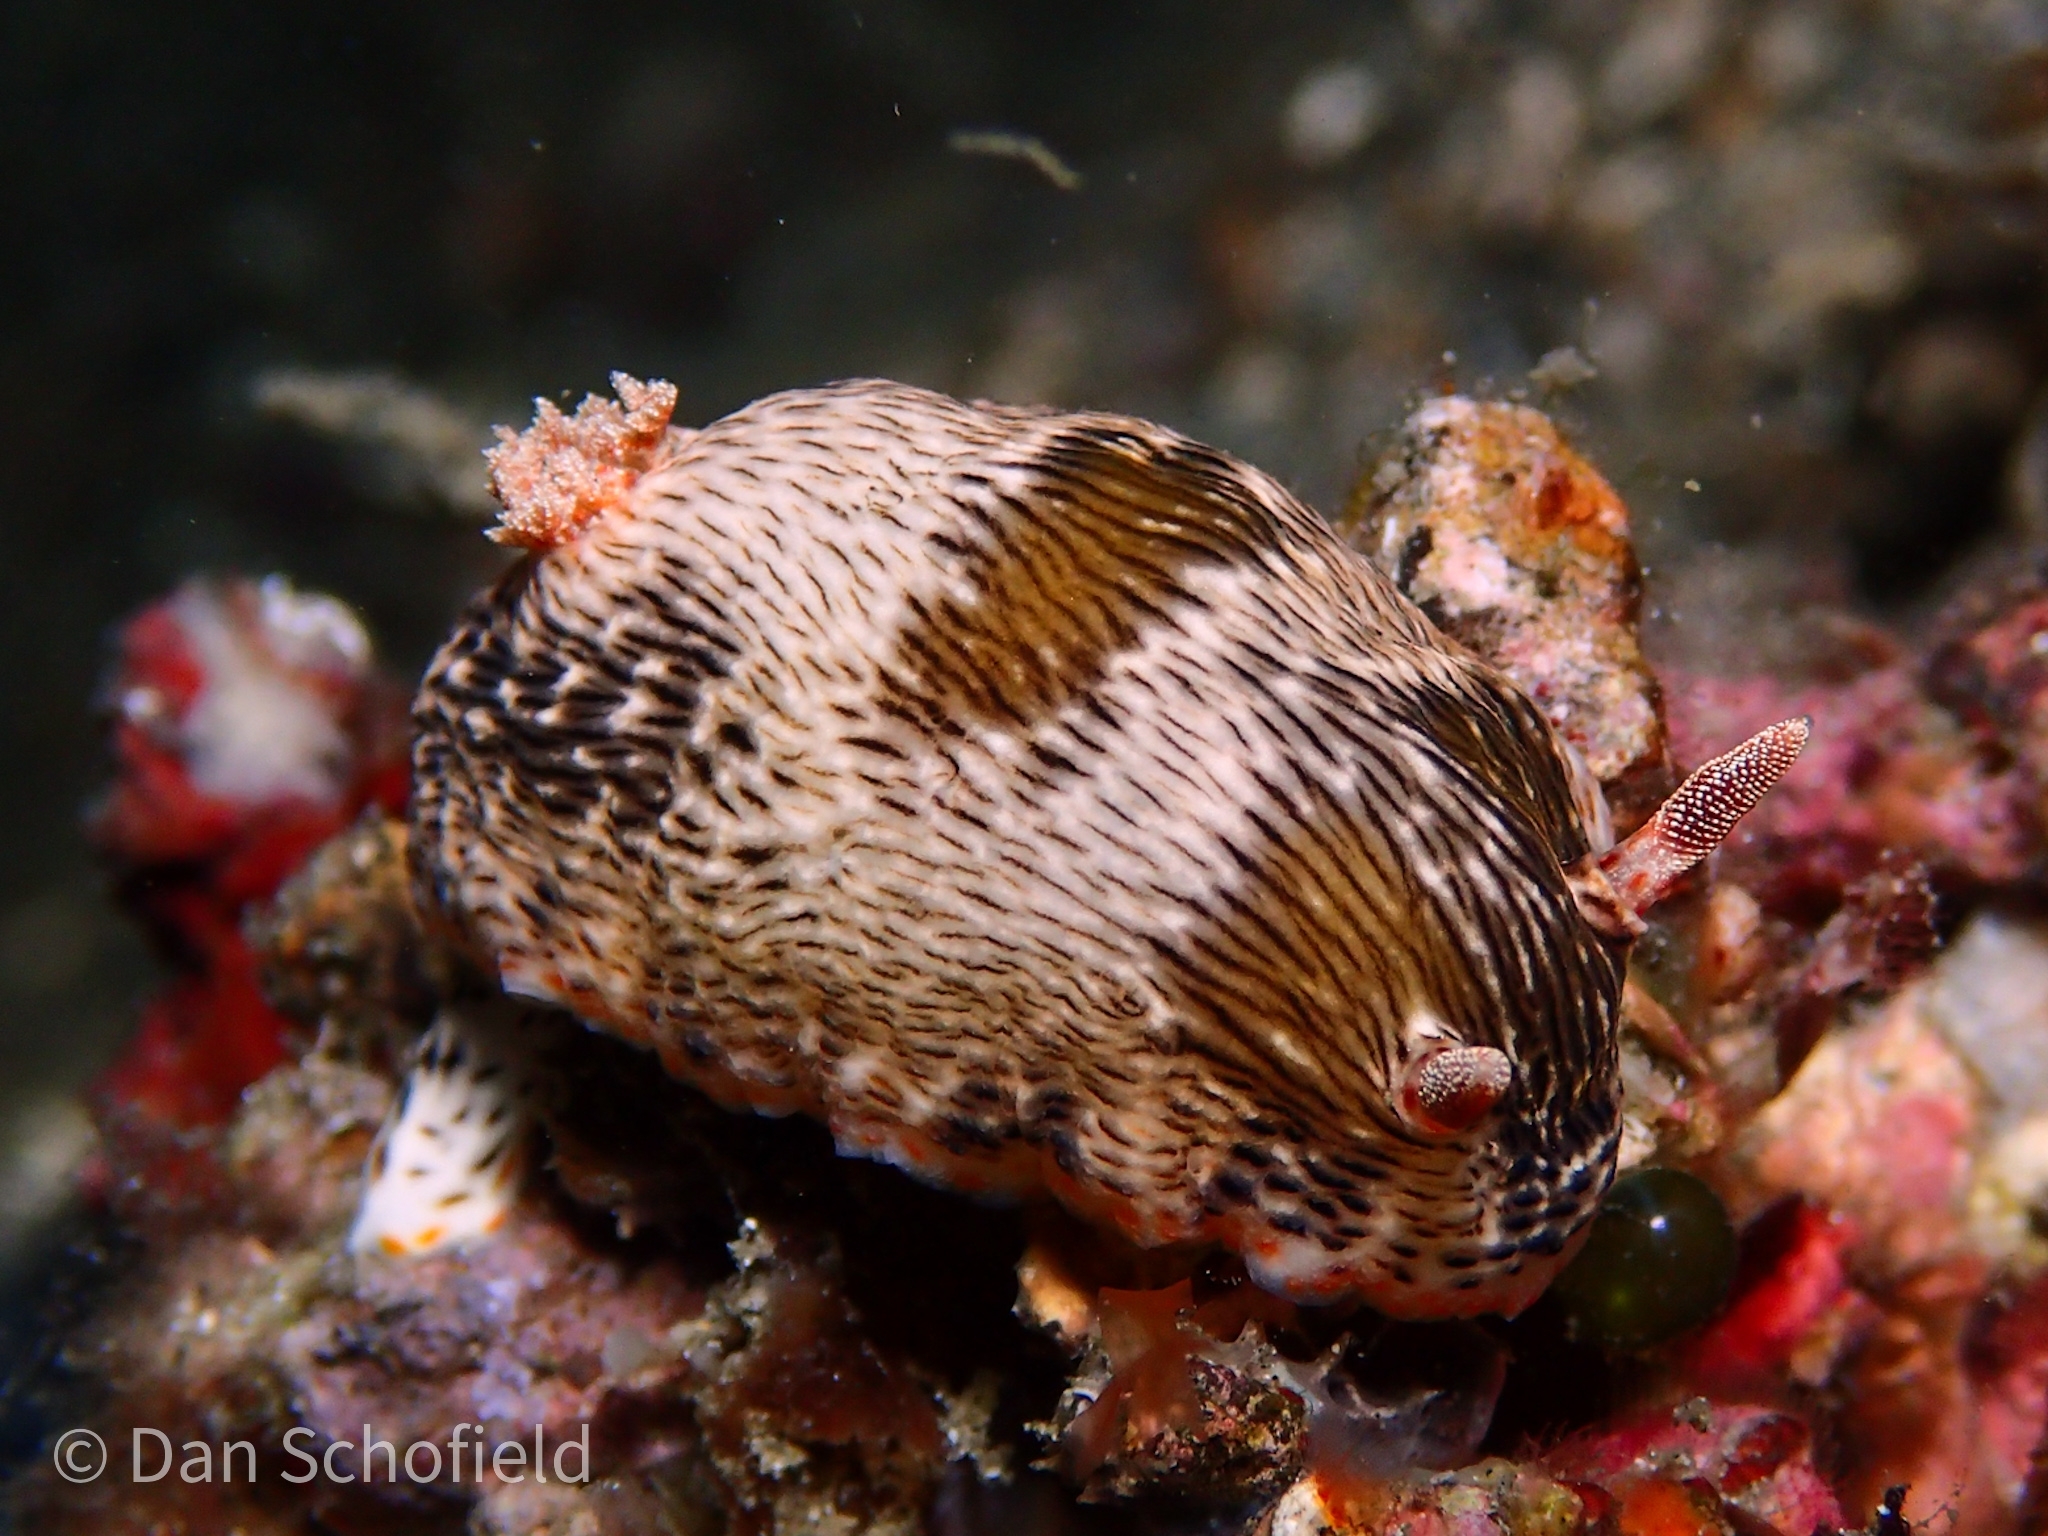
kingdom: Animalia
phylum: Mollusca
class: Gastropoda
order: Nudibranchia
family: Chromodorididae
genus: Chromodoris
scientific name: Chromodoris balat
